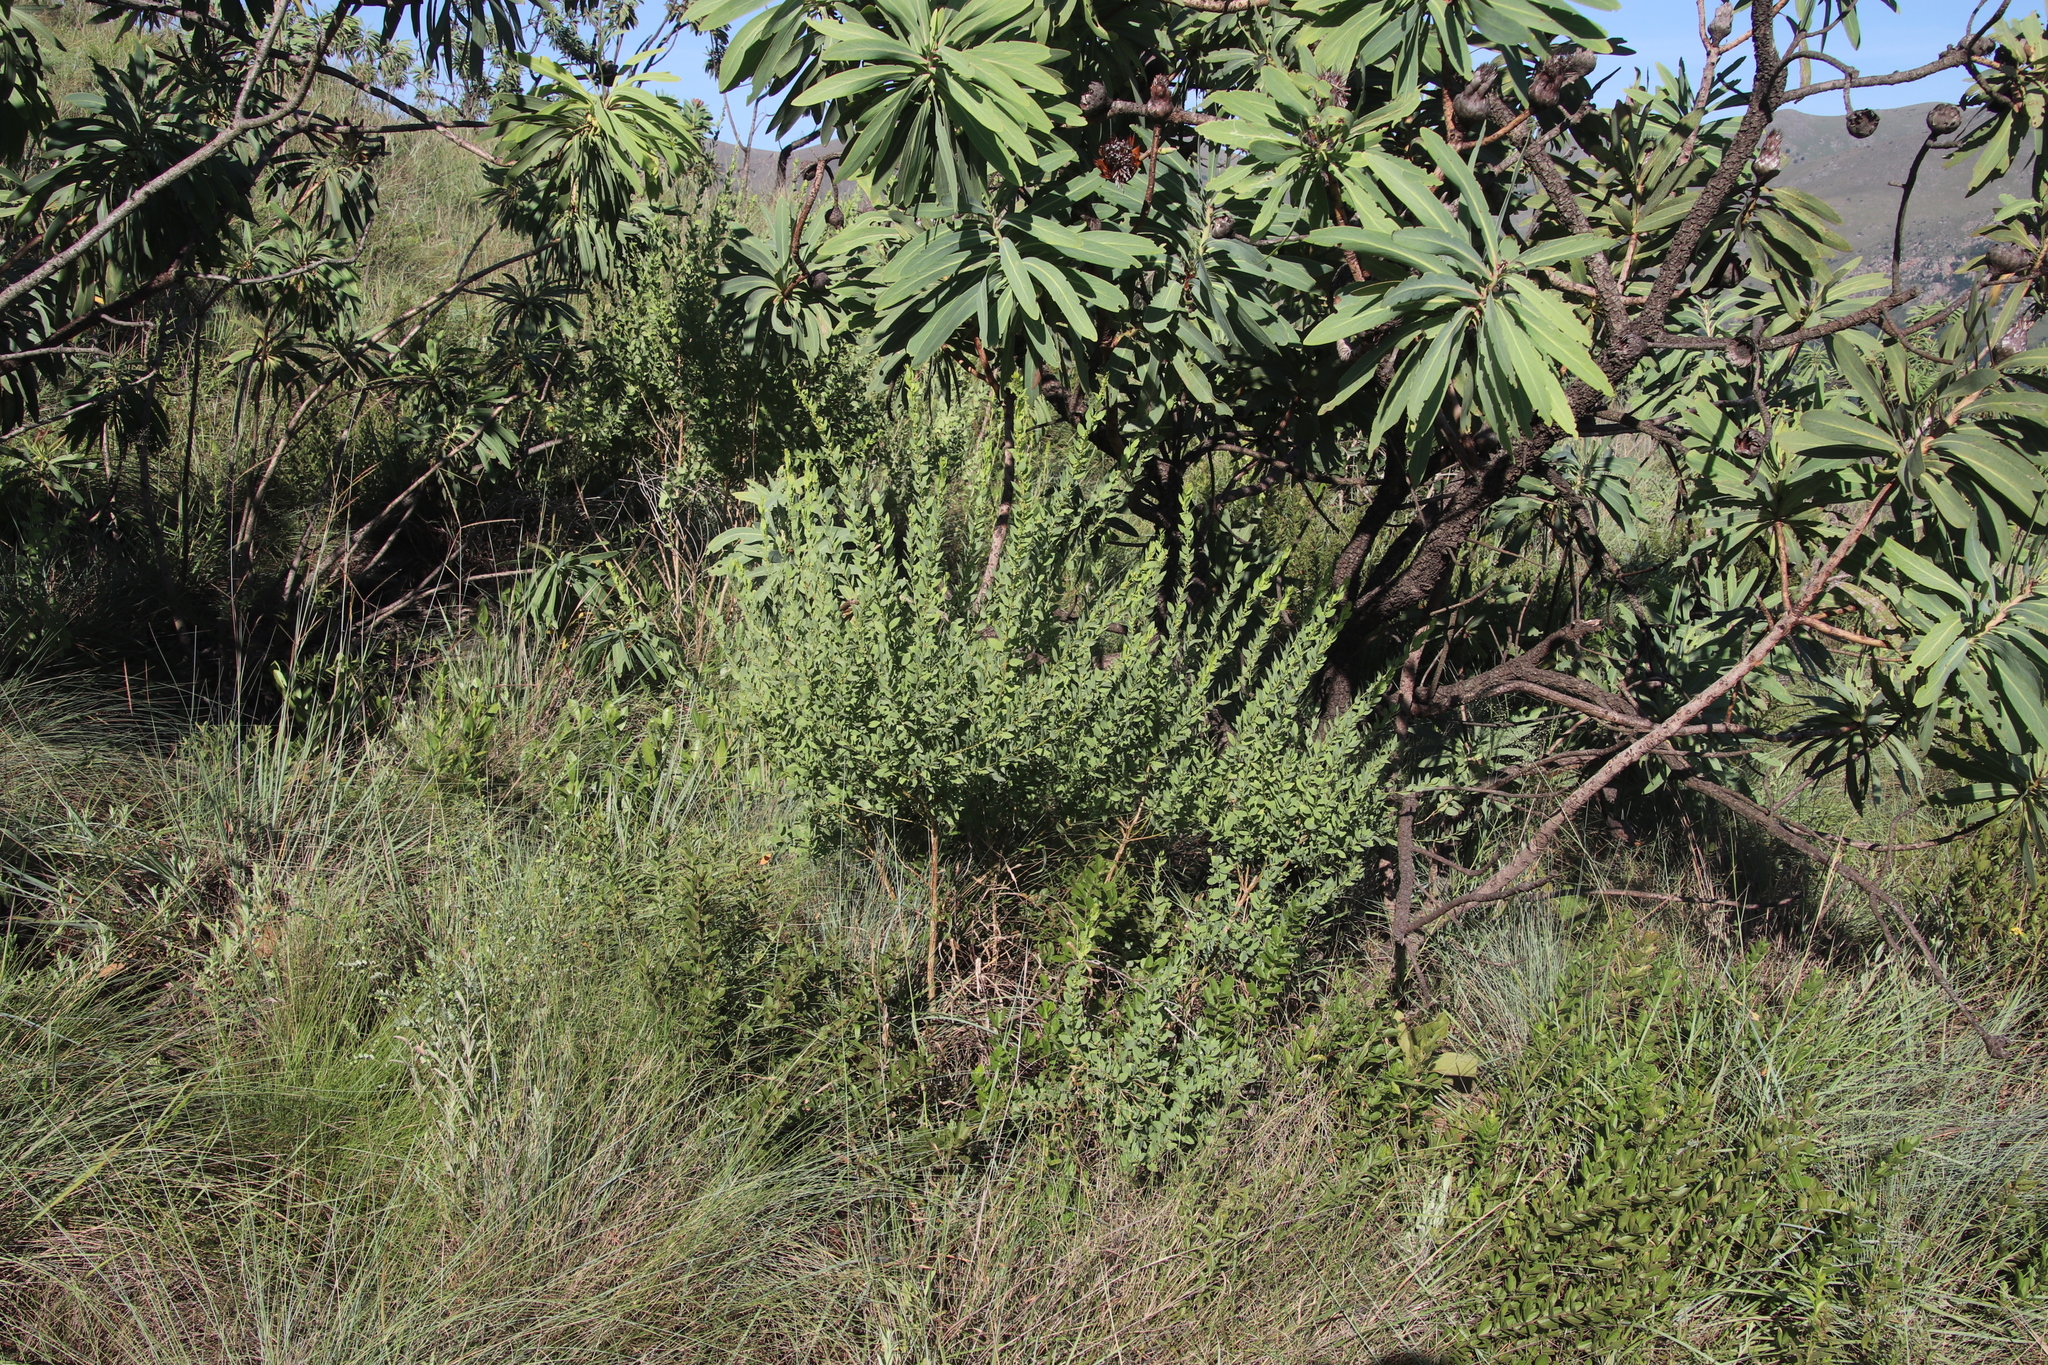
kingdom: Plantae
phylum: Tracheophyta
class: Magnoliopsida
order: Malpighiales
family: Peraceae
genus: Clutia
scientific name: Clutia pulchella
